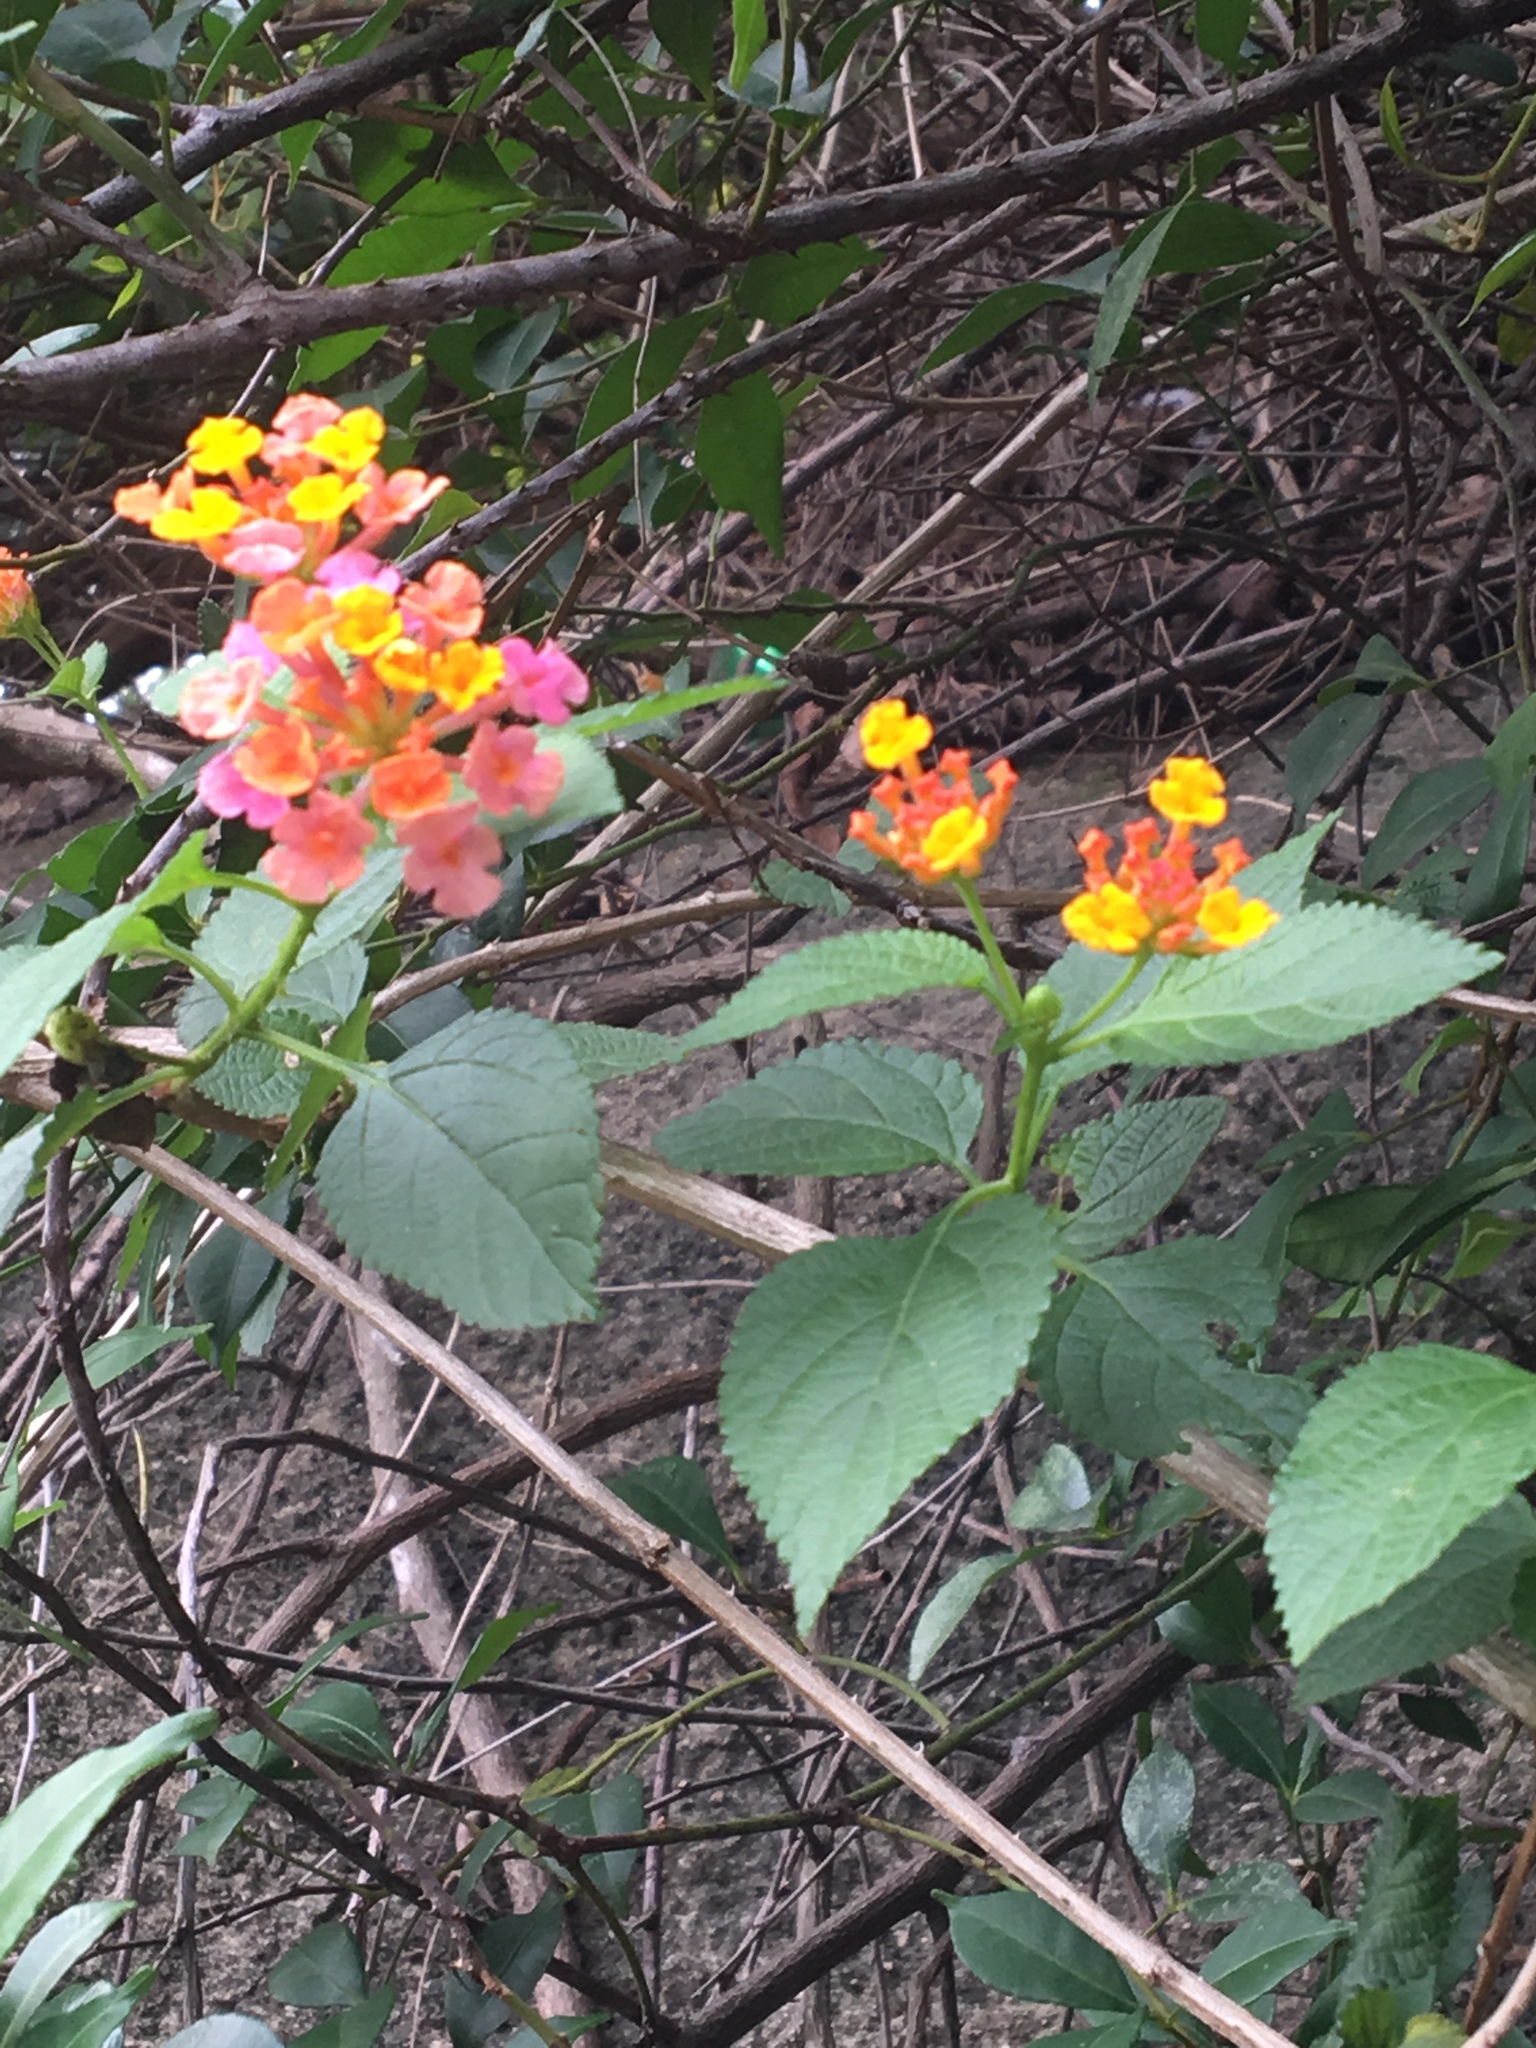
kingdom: Plantae
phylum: Tracheophyta
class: Magnoliopsida
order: Lamiales
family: Verbenaceae
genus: Lantana
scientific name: Lantana camara
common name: Lantana
